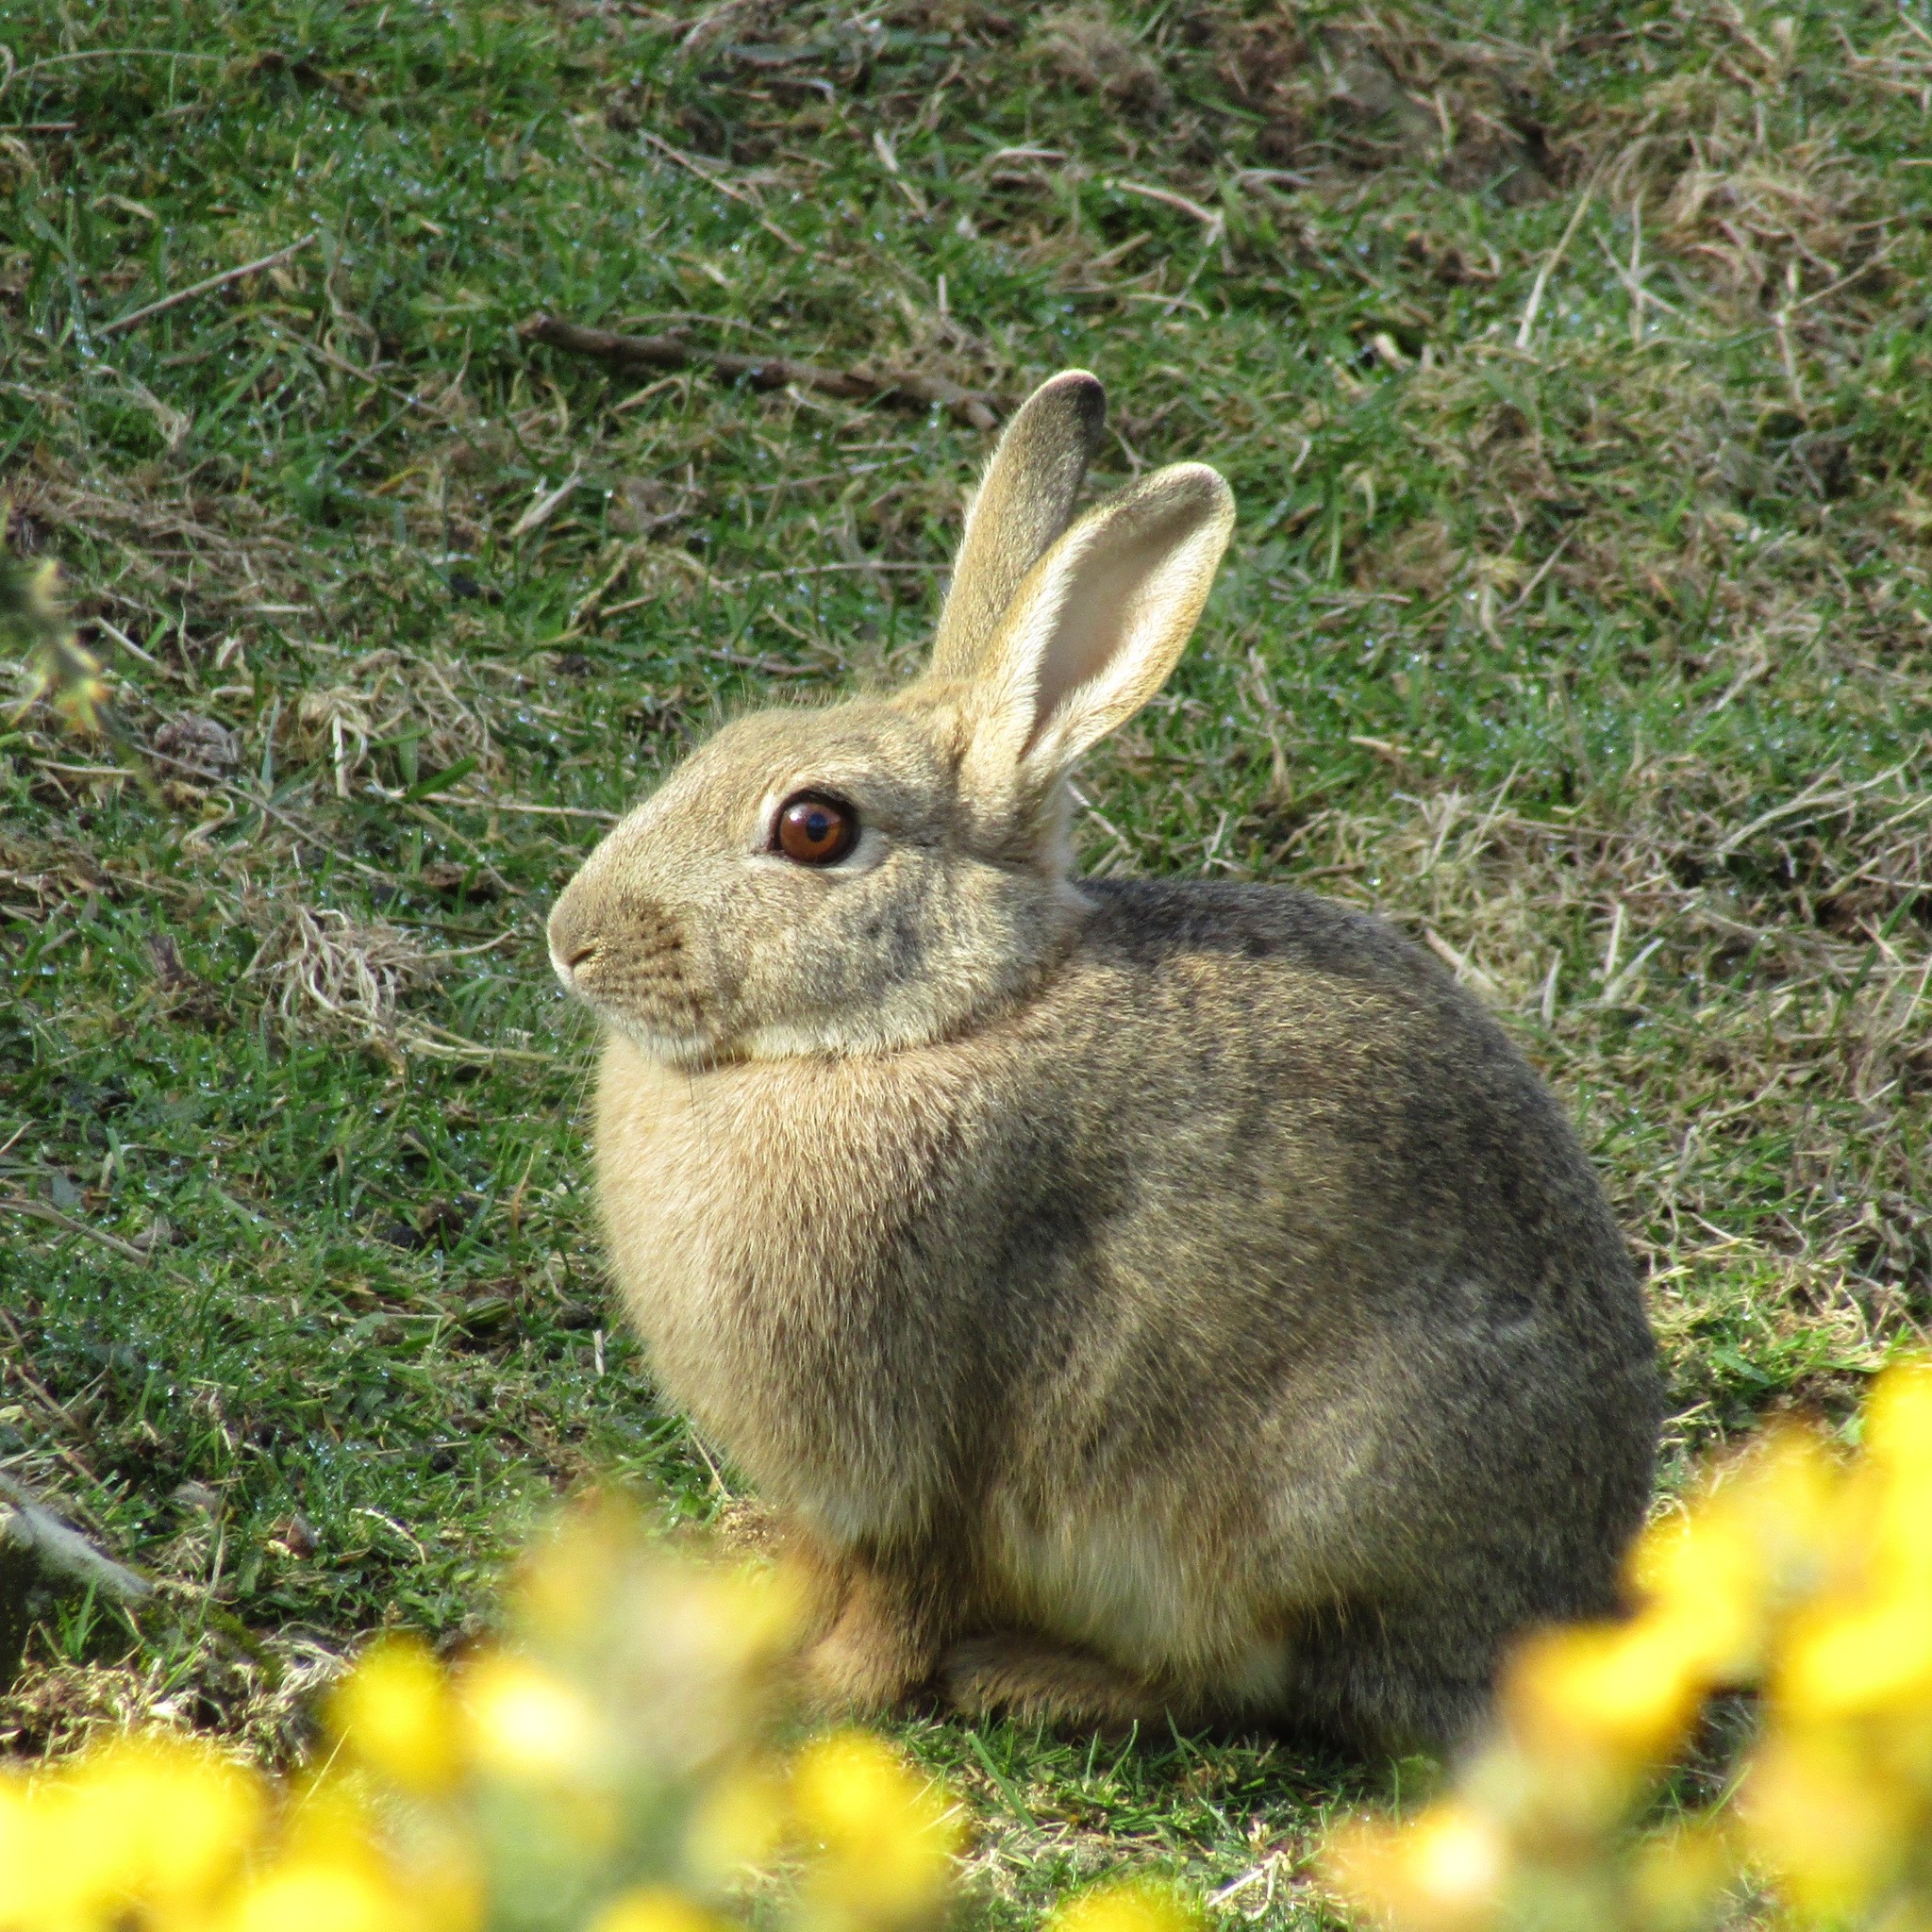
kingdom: Animalia
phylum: Chordata
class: Mammalia
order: Lagomorpha
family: Leporidae
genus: Oryctolagus
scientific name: Oryctolagus cuniculus
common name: European rabbit
